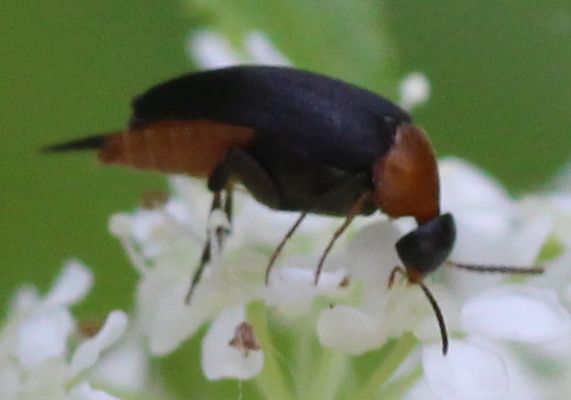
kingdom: Animalia
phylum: Arthropoda
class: Insecta
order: Coleoptera
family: Mordellidae
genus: Mordellochroa
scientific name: Mordellochroa abdominalis
